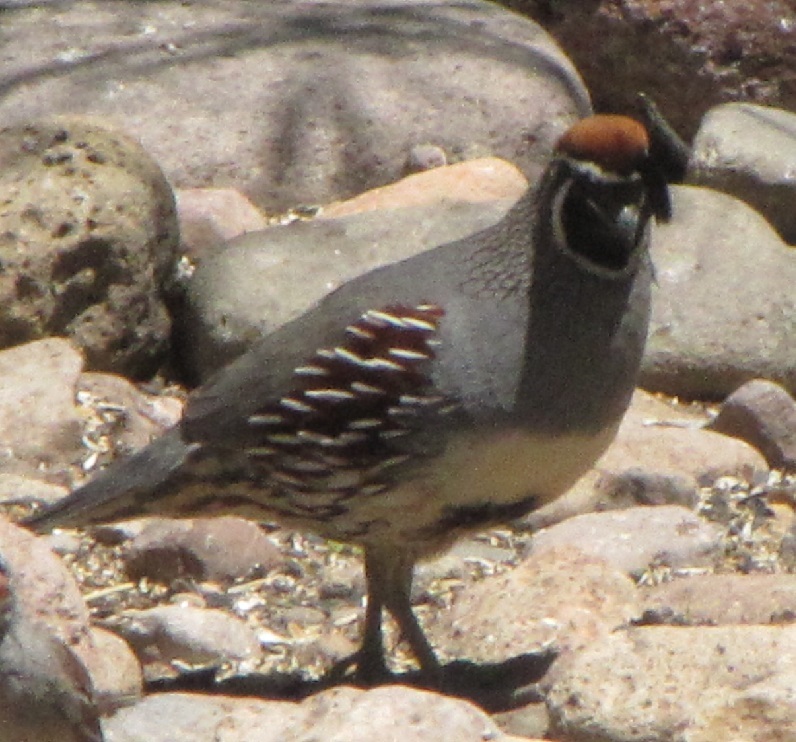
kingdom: Animalia
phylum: Chordata
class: Aves
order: Galliformes
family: Odontophoridae
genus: Callipepla
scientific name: Callipepla gambelii
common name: Gambel's quail
